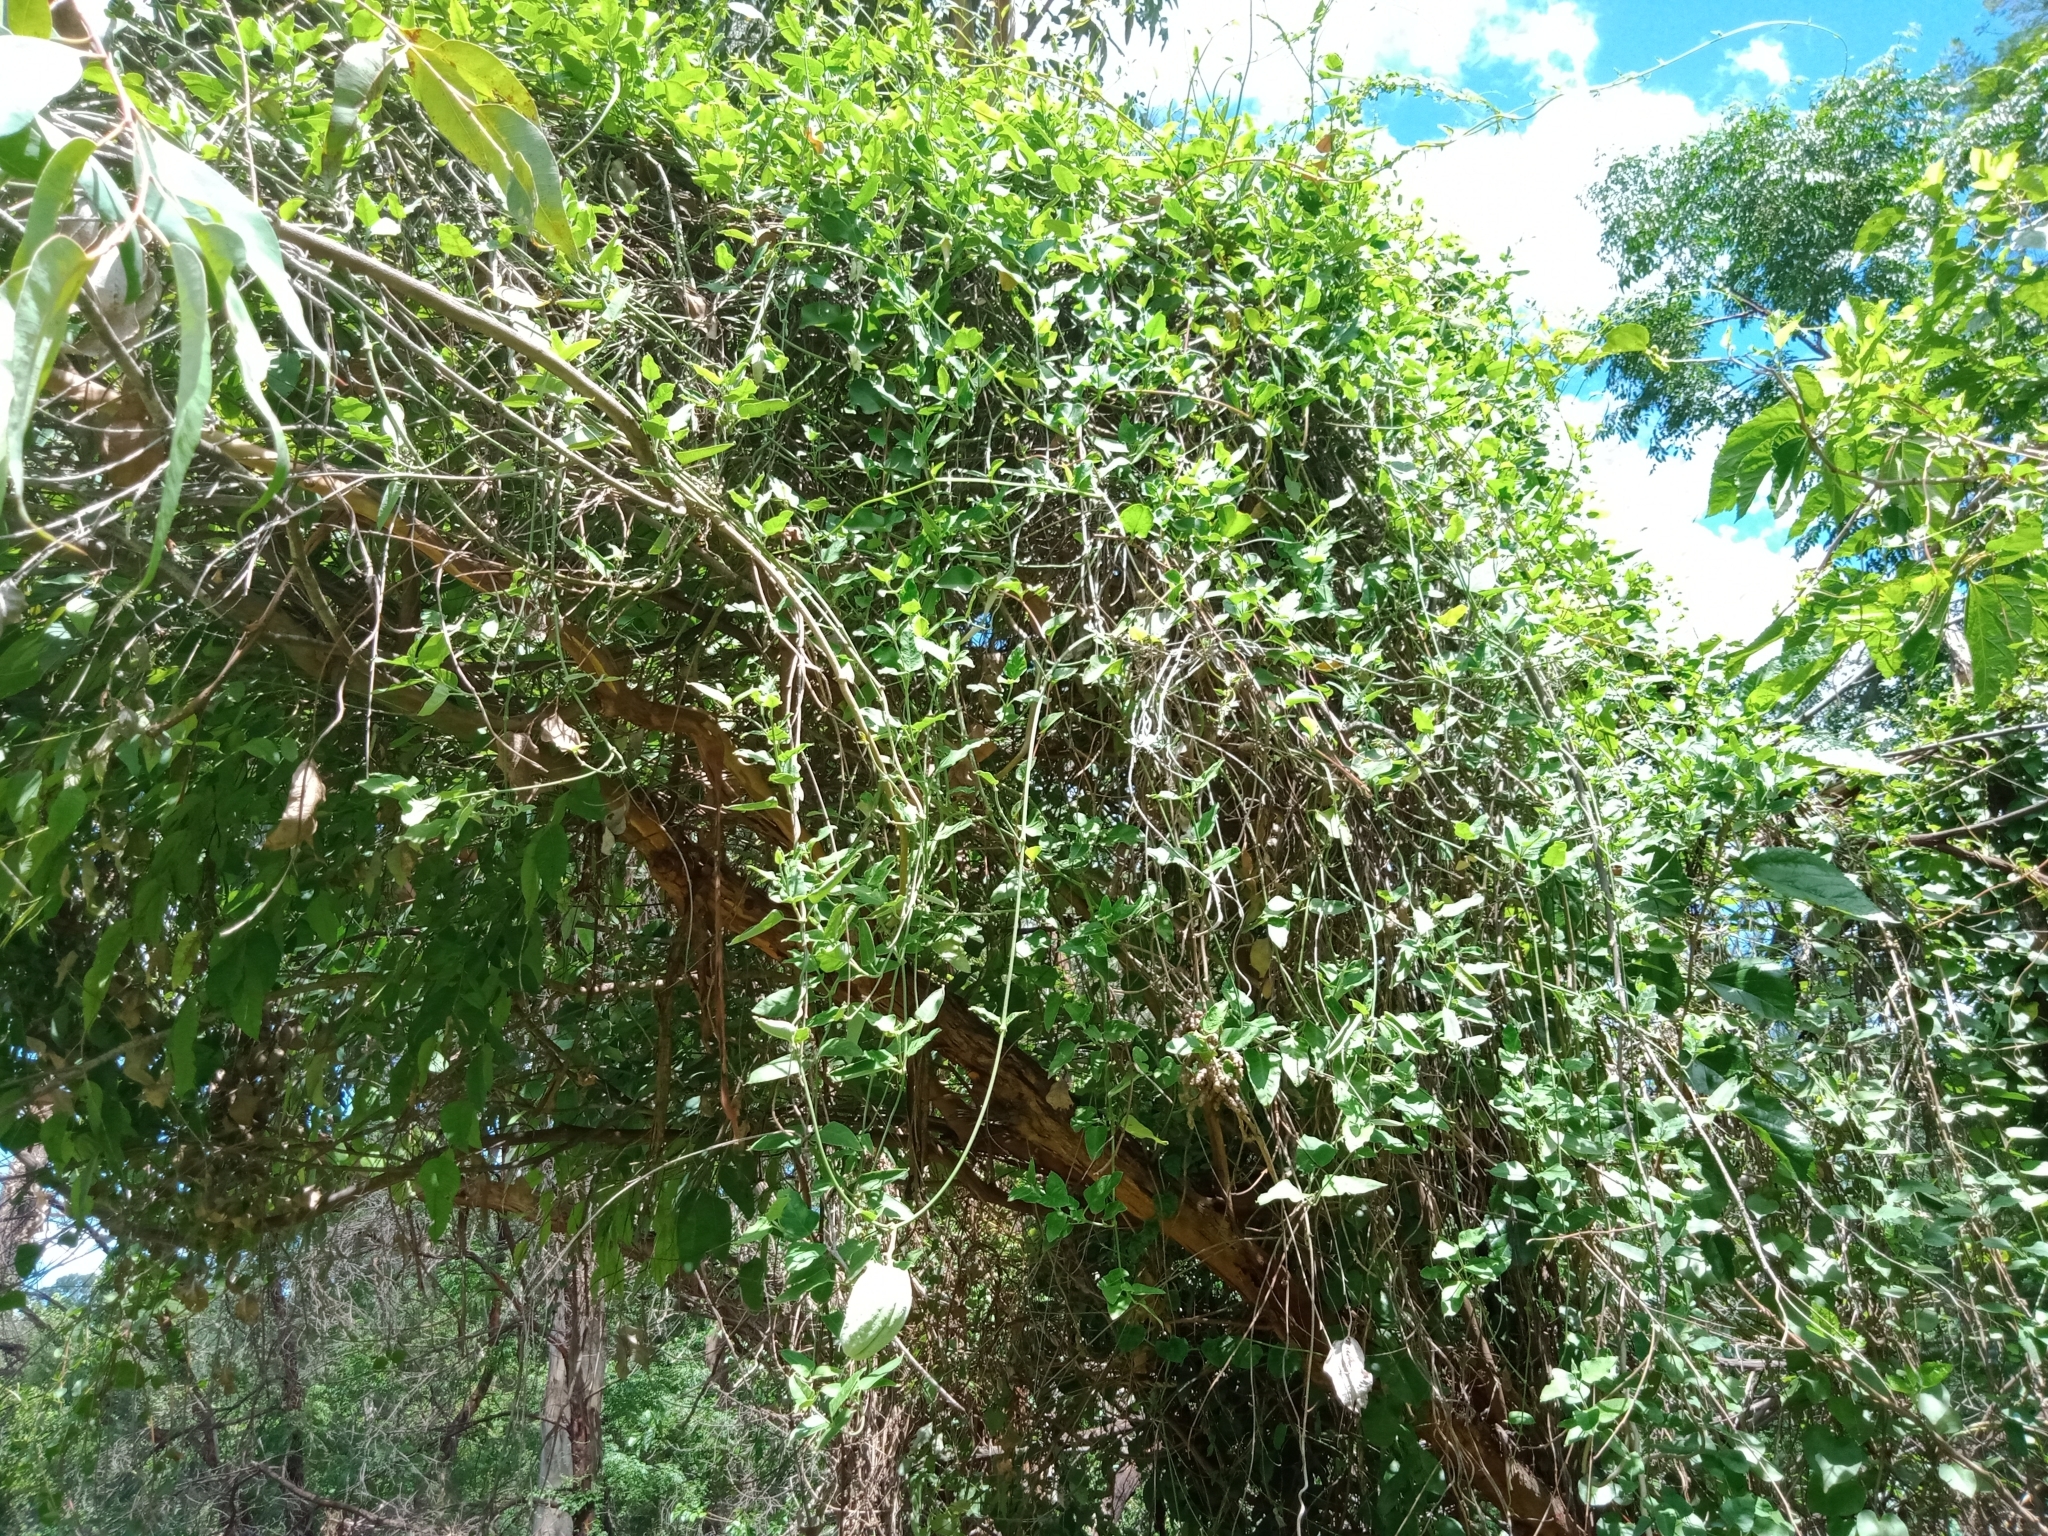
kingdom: Plantae
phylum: Tracheophyta
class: Magnoliopsida
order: Gentianales
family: Apocynaceae
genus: Araujia
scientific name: Araujia sericifera
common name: White bladderflower
